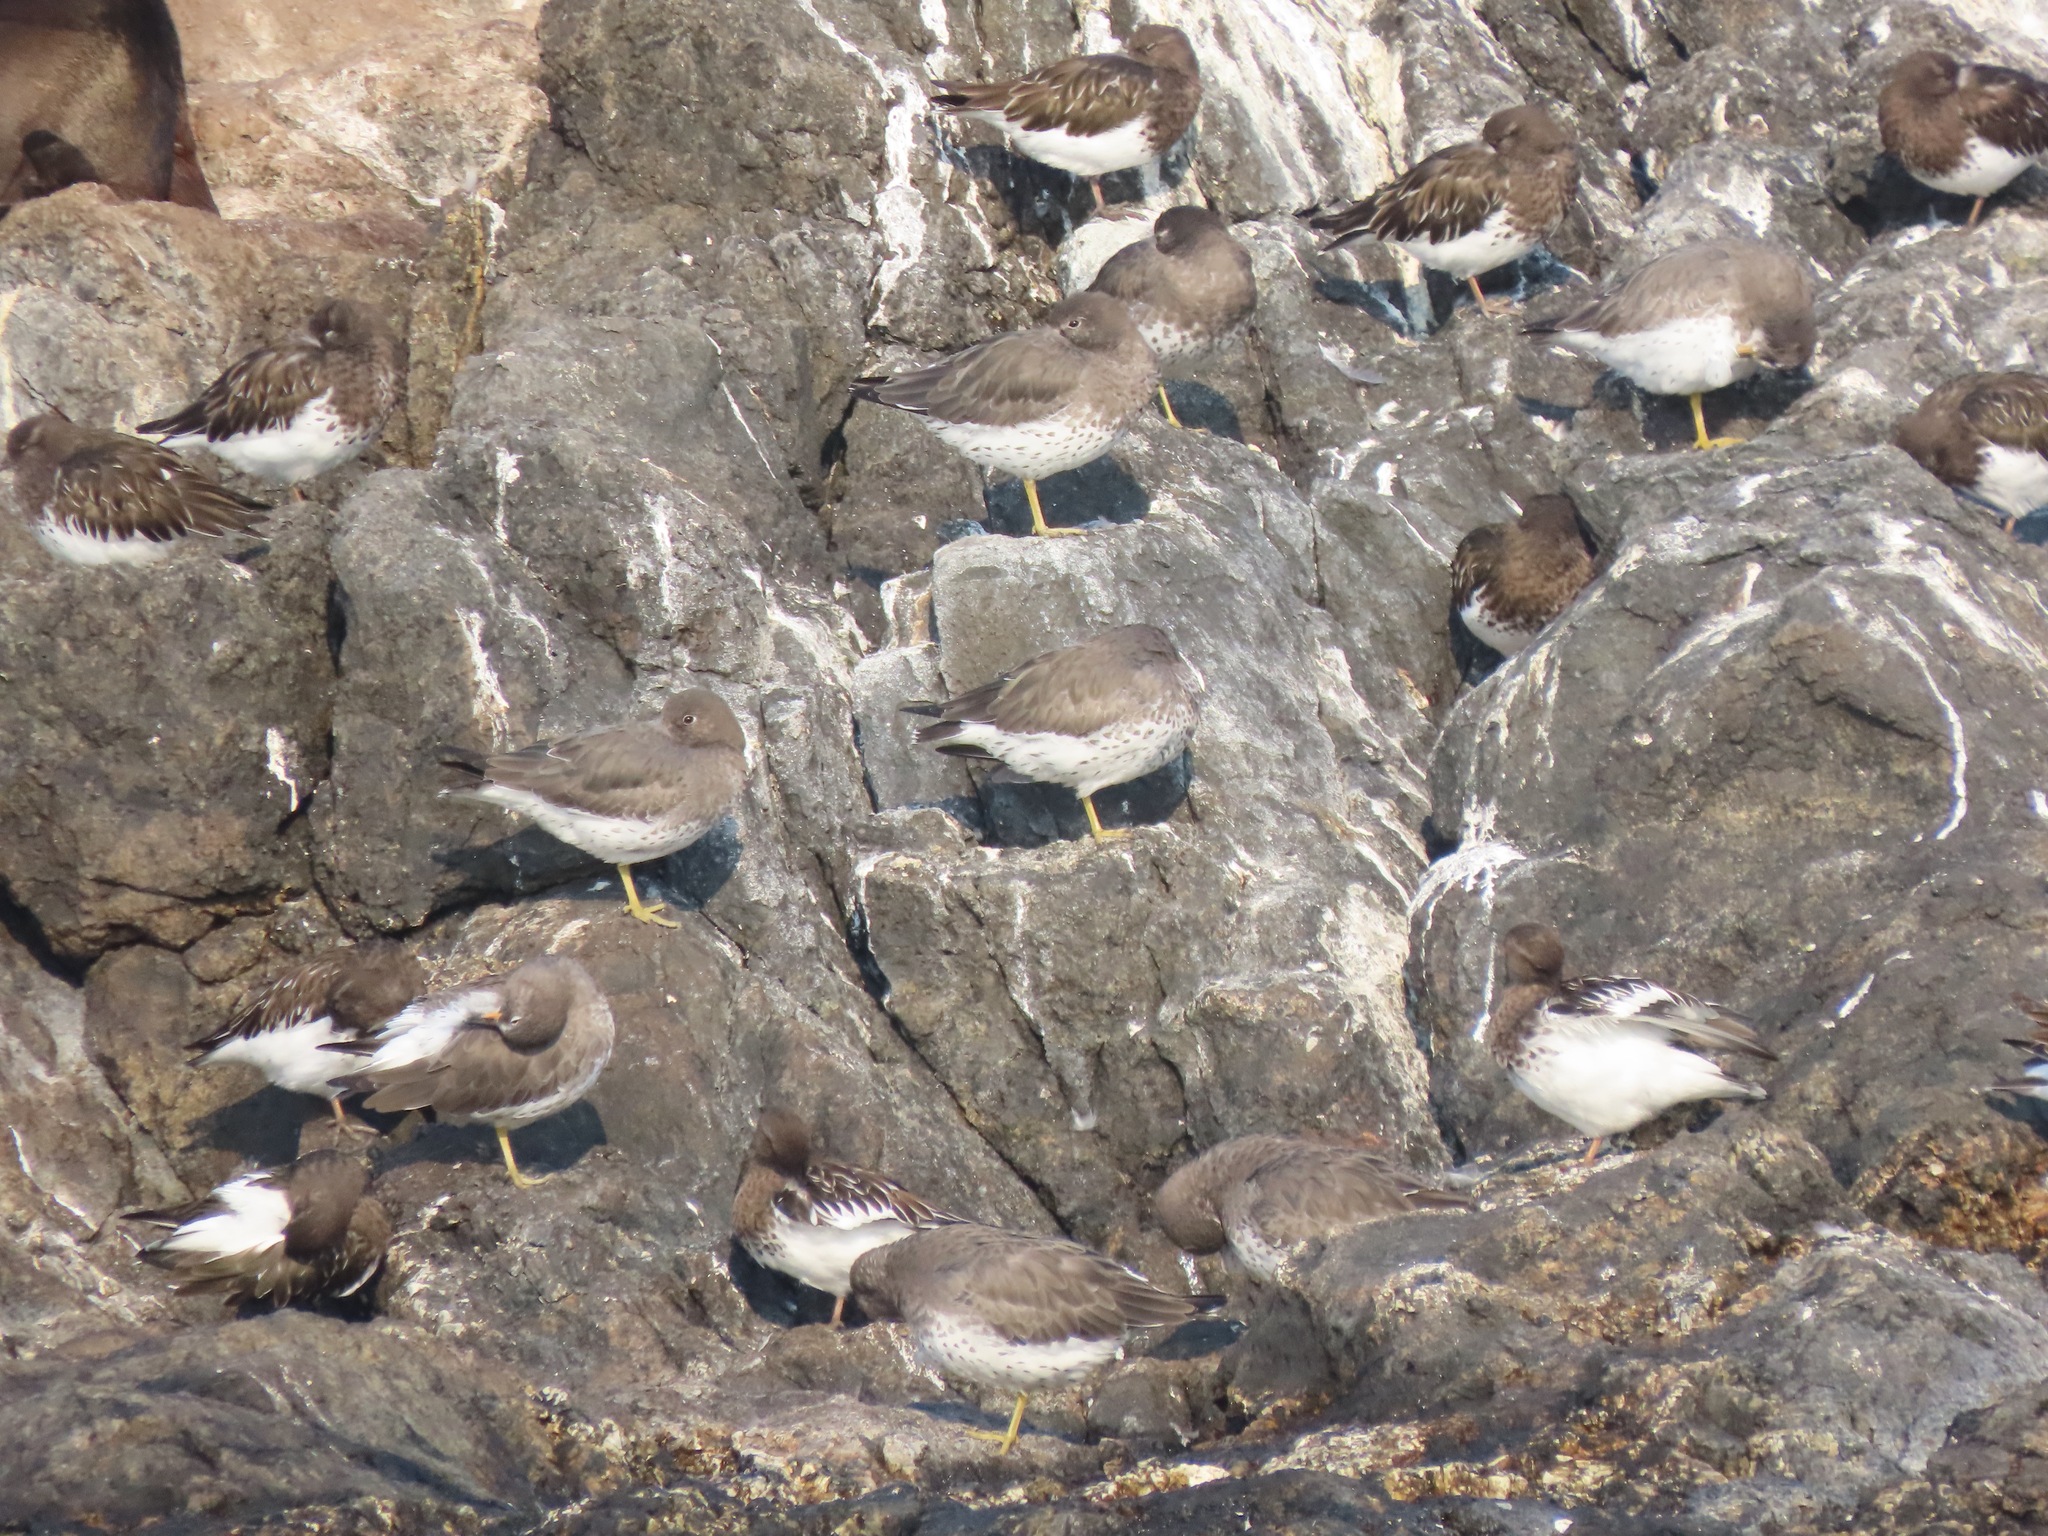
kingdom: Animalia
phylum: Chordata
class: Aves
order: Charadriiformes
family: Scolopacidae
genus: Calidris
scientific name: Calidris virgata
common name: Surfbird
